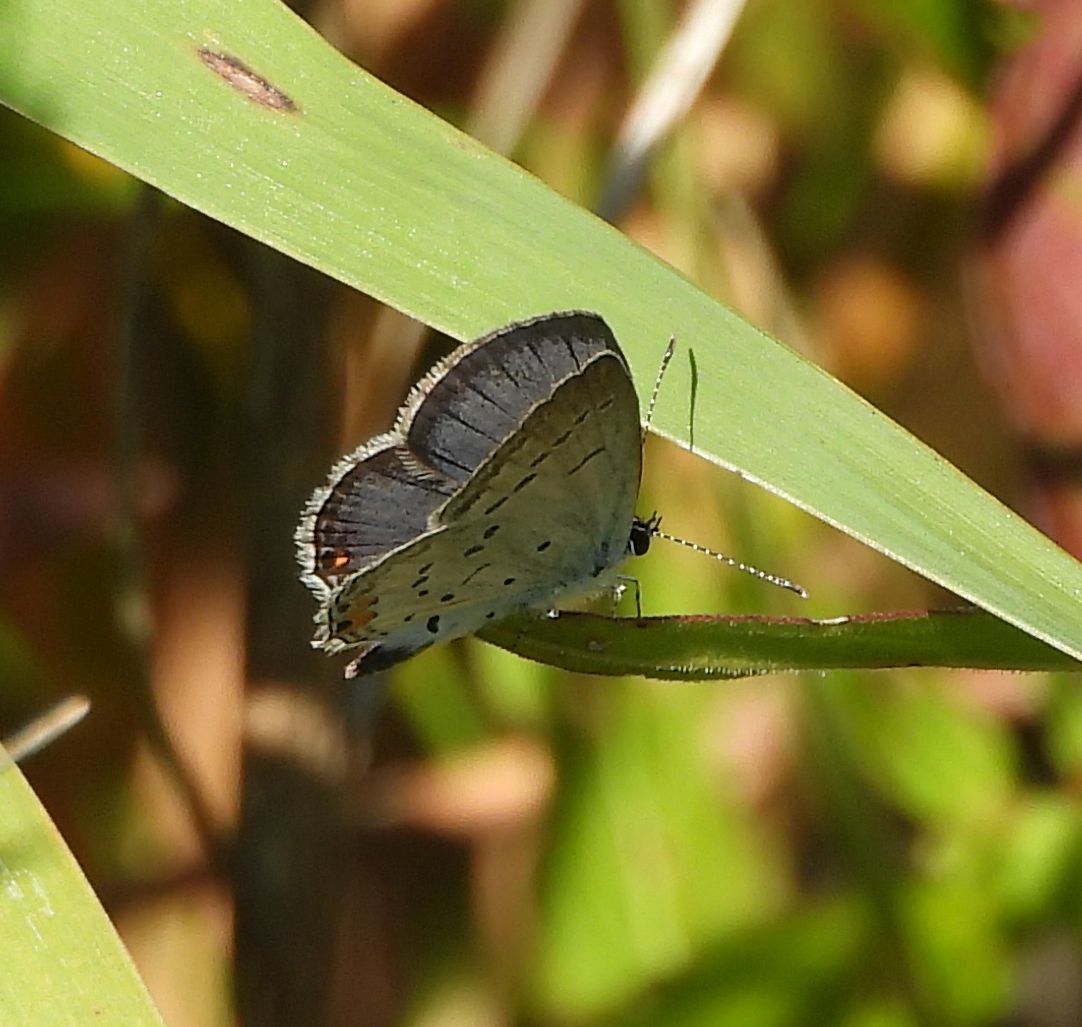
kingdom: Animalia
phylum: Arthropoda
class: Insecta
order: Lepidoptera
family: Lycaenidae
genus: Elkalyce
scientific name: Elkalyce comyntas
